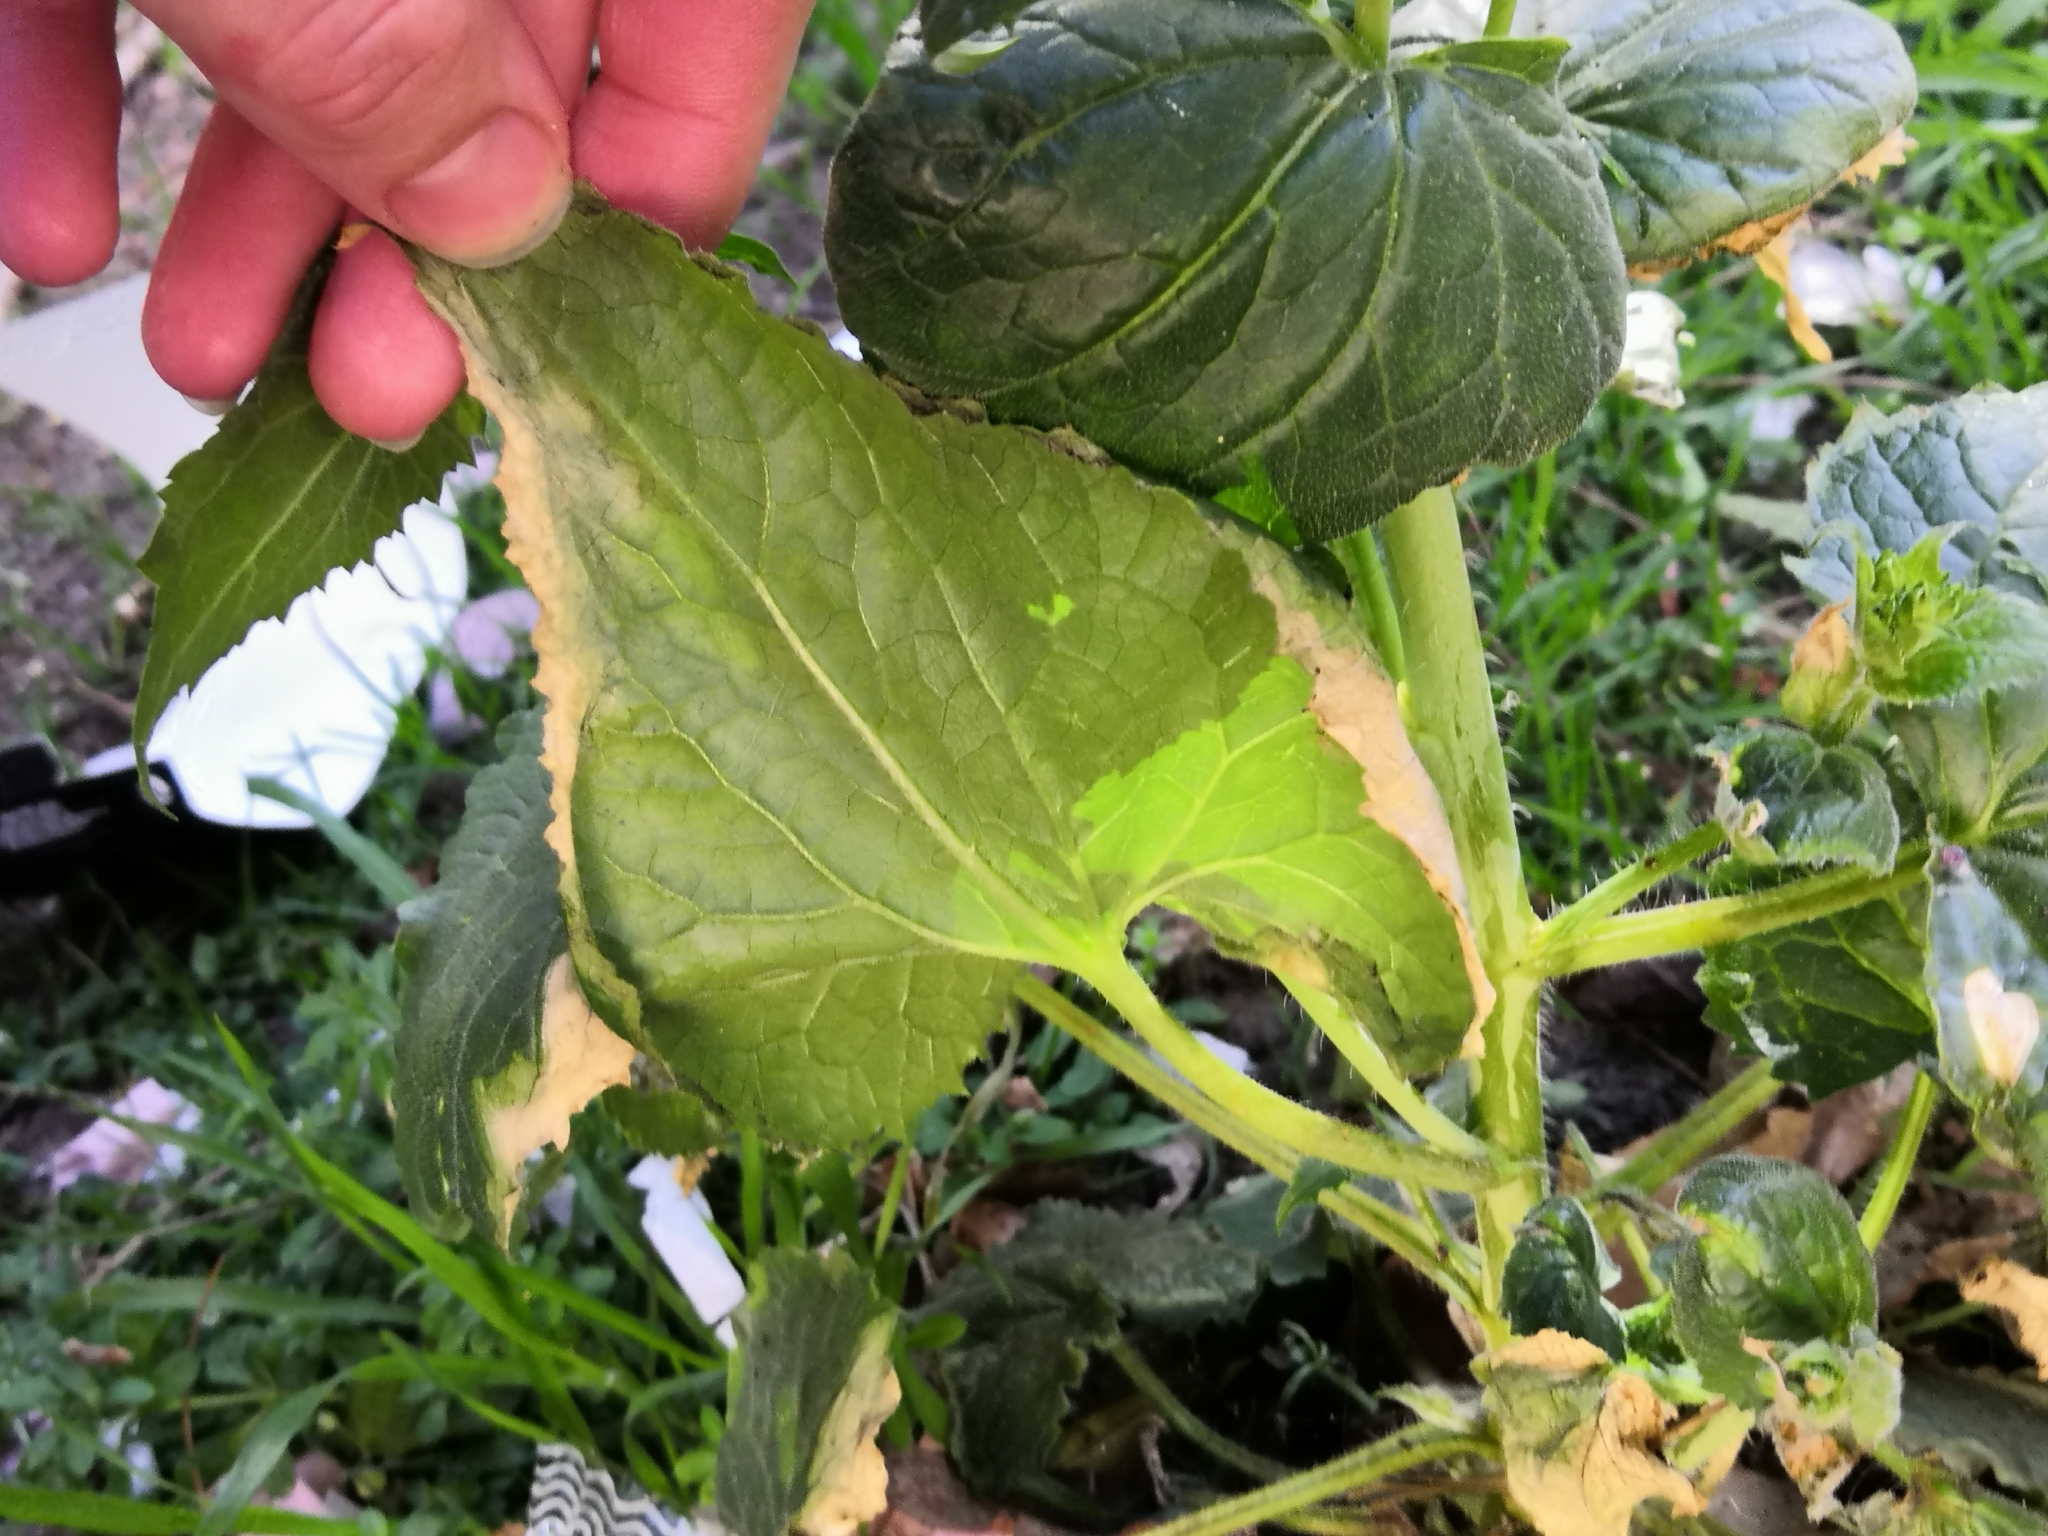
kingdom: Plantae
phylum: Tracheophyta
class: Magnoliopsida
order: Brassicales
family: Brassicaceae
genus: Lunaria
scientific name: Lunaria annua
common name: Honesty
